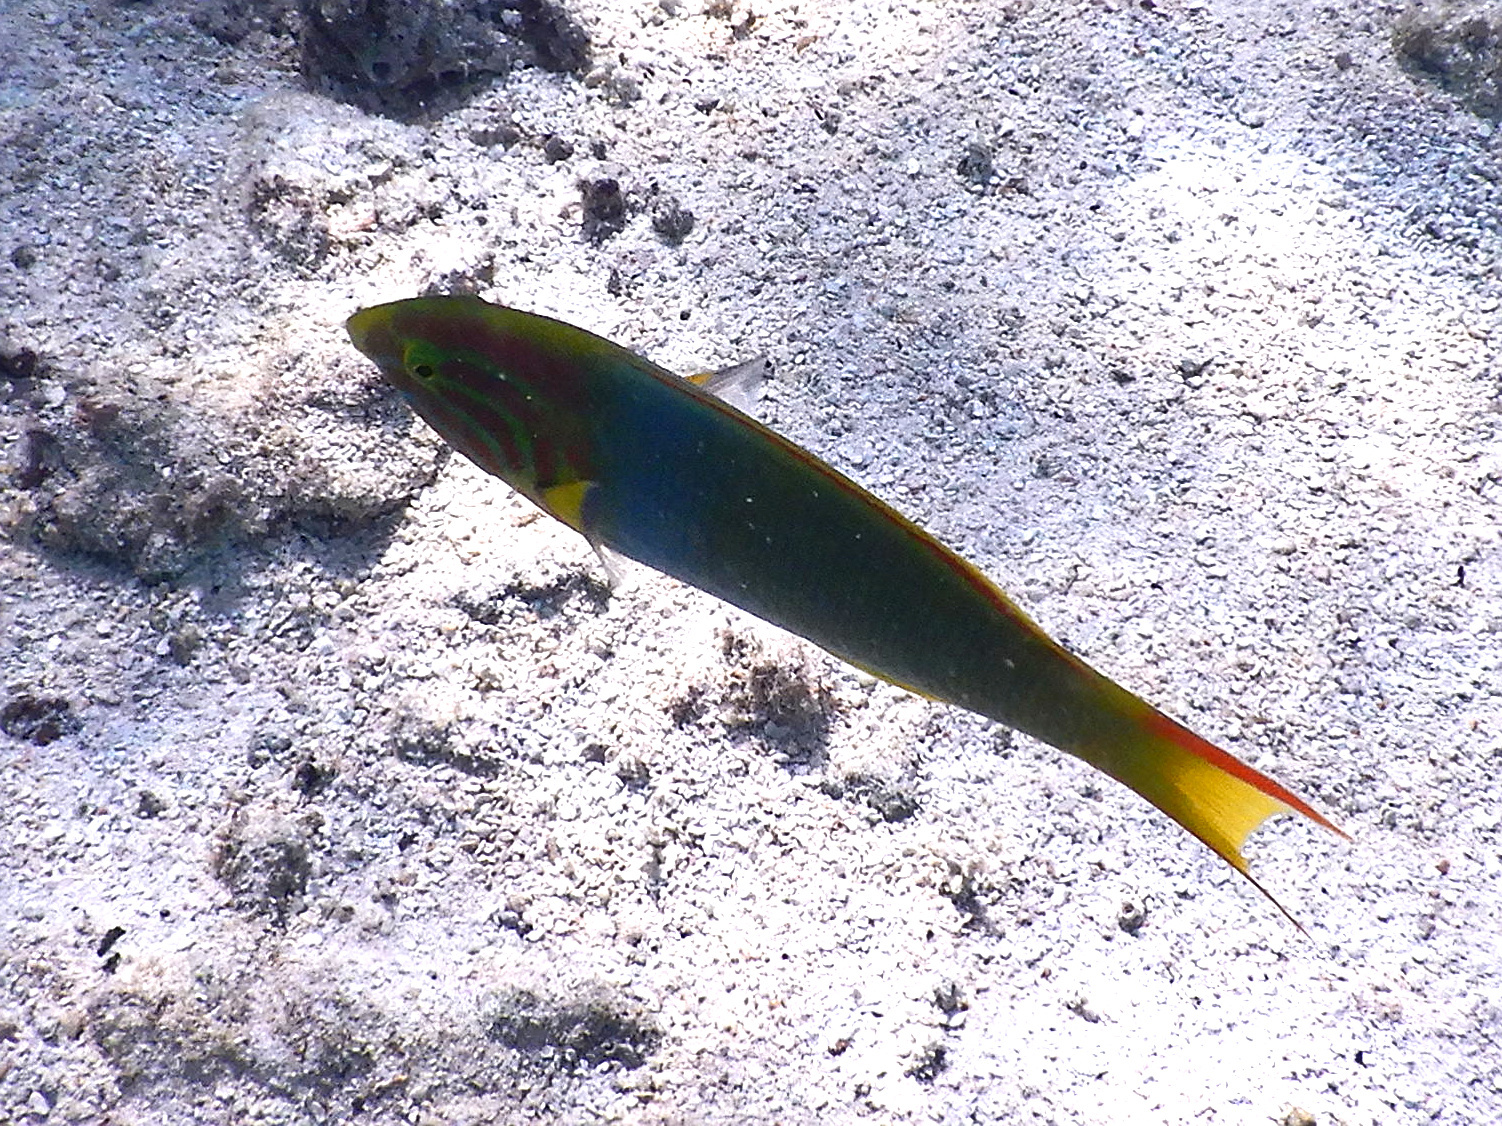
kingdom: Animalia
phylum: Chordata
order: Perciformes
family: Labridae
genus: Thalassoma
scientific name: Thalassoma lutescens
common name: Green moon wrasse
